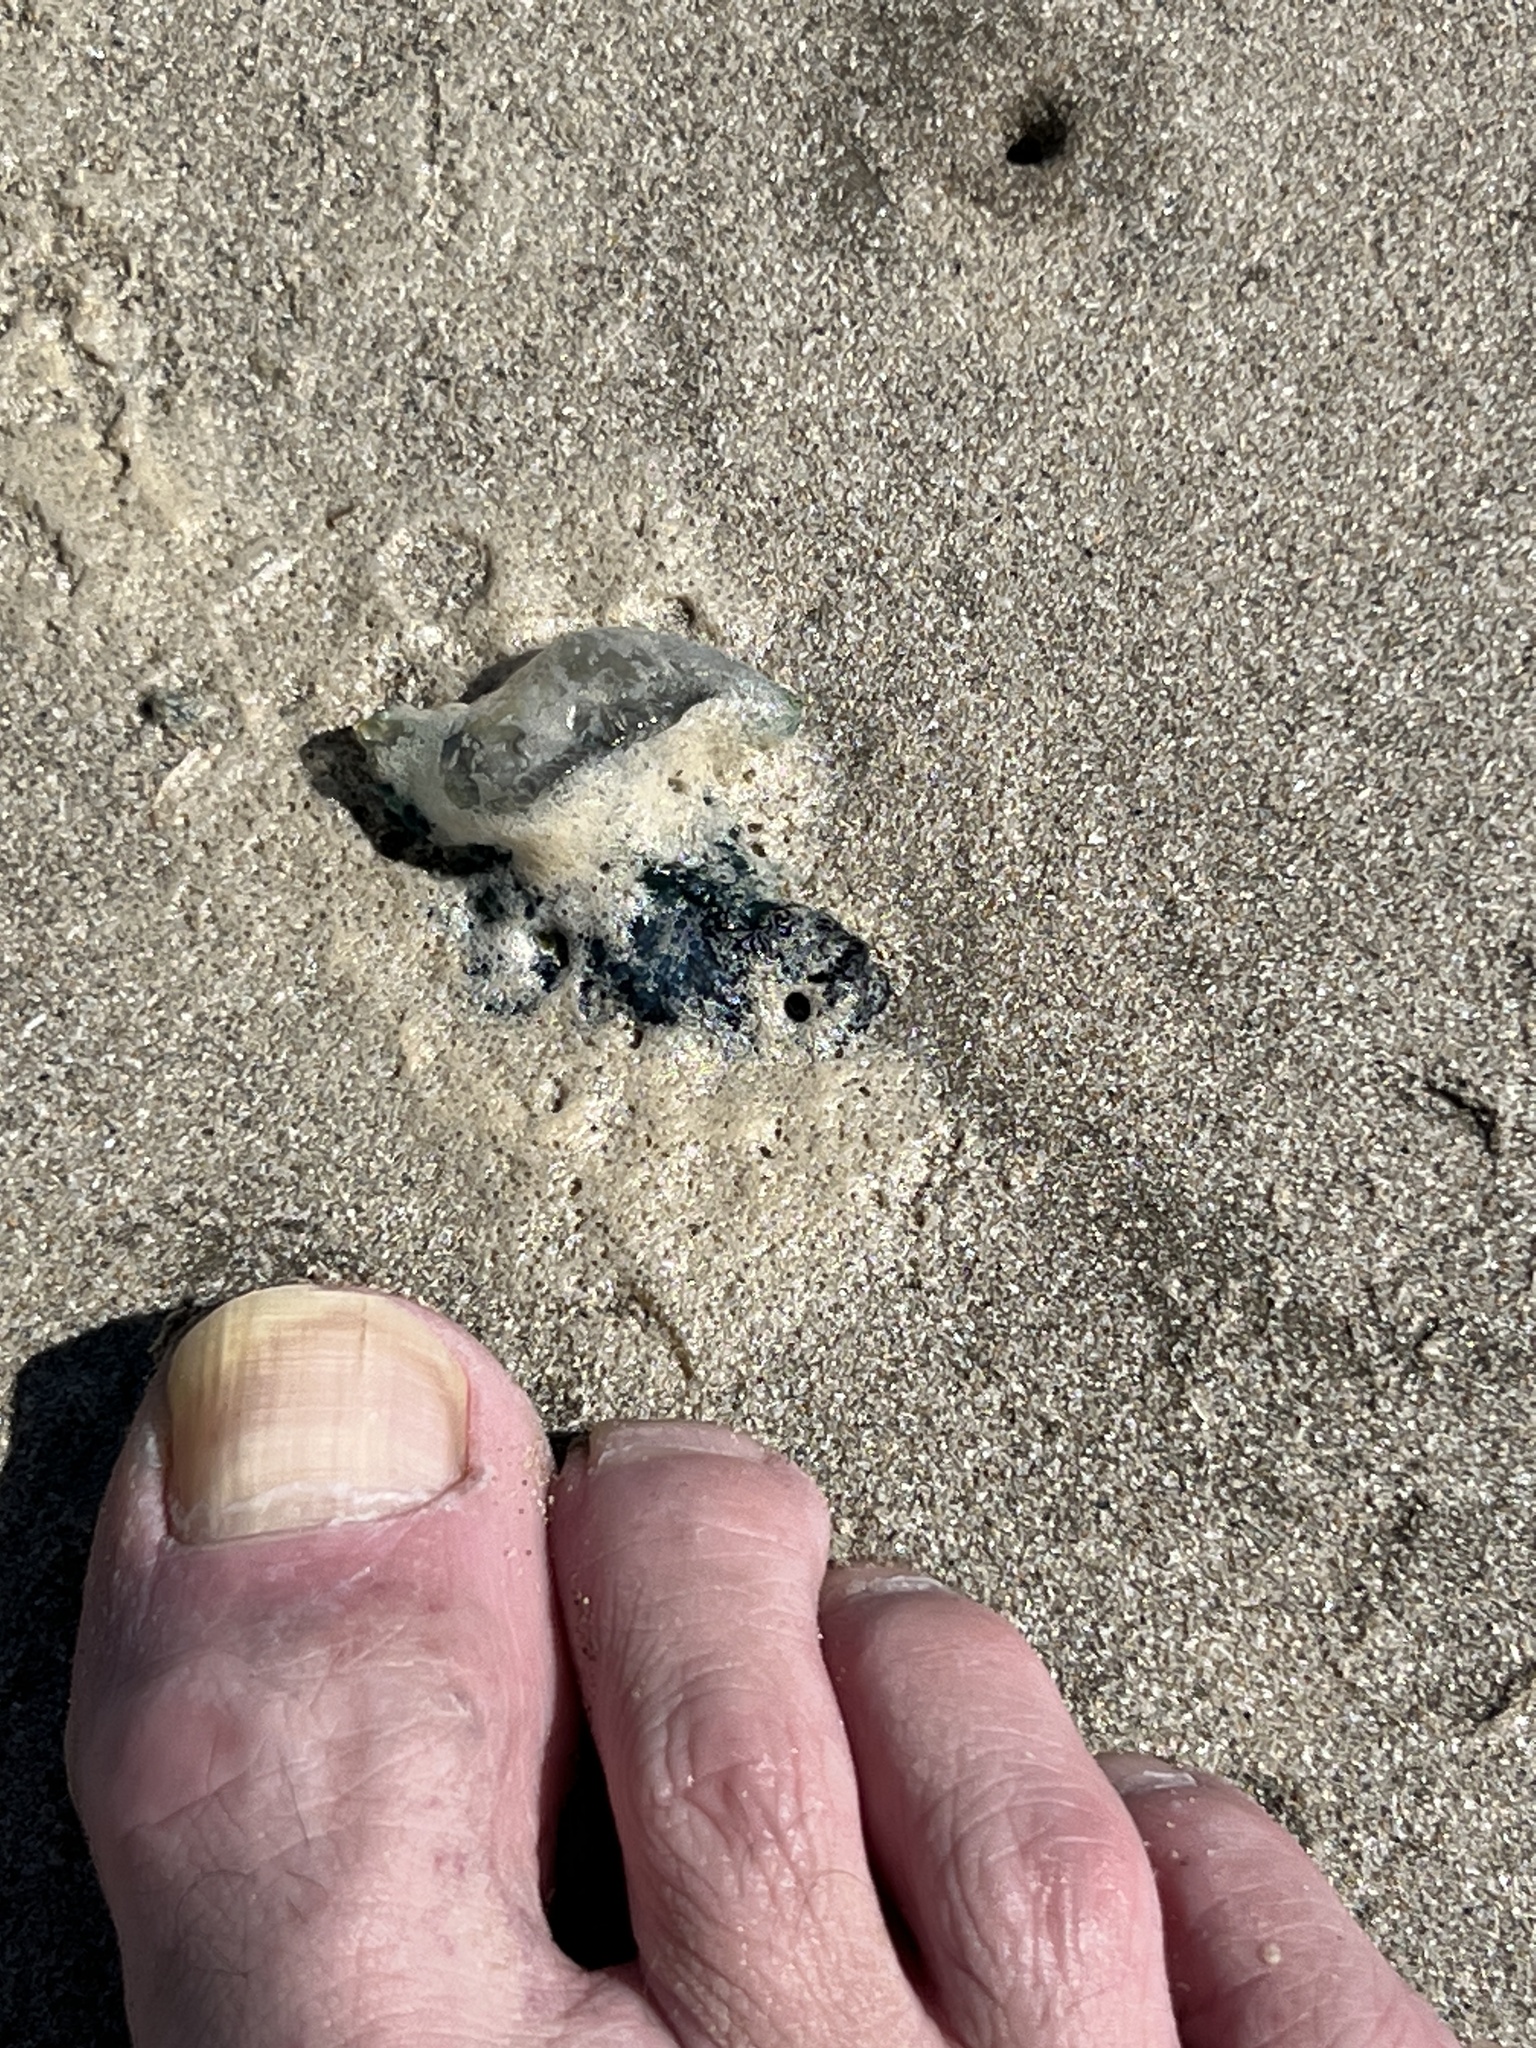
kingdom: Animalia
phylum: Cnidaria
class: Hydrozoa
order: Siphonophorae
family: Physaliidae
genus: Physalia
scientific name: Physalia physalis
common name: Portuguese man-of-war
